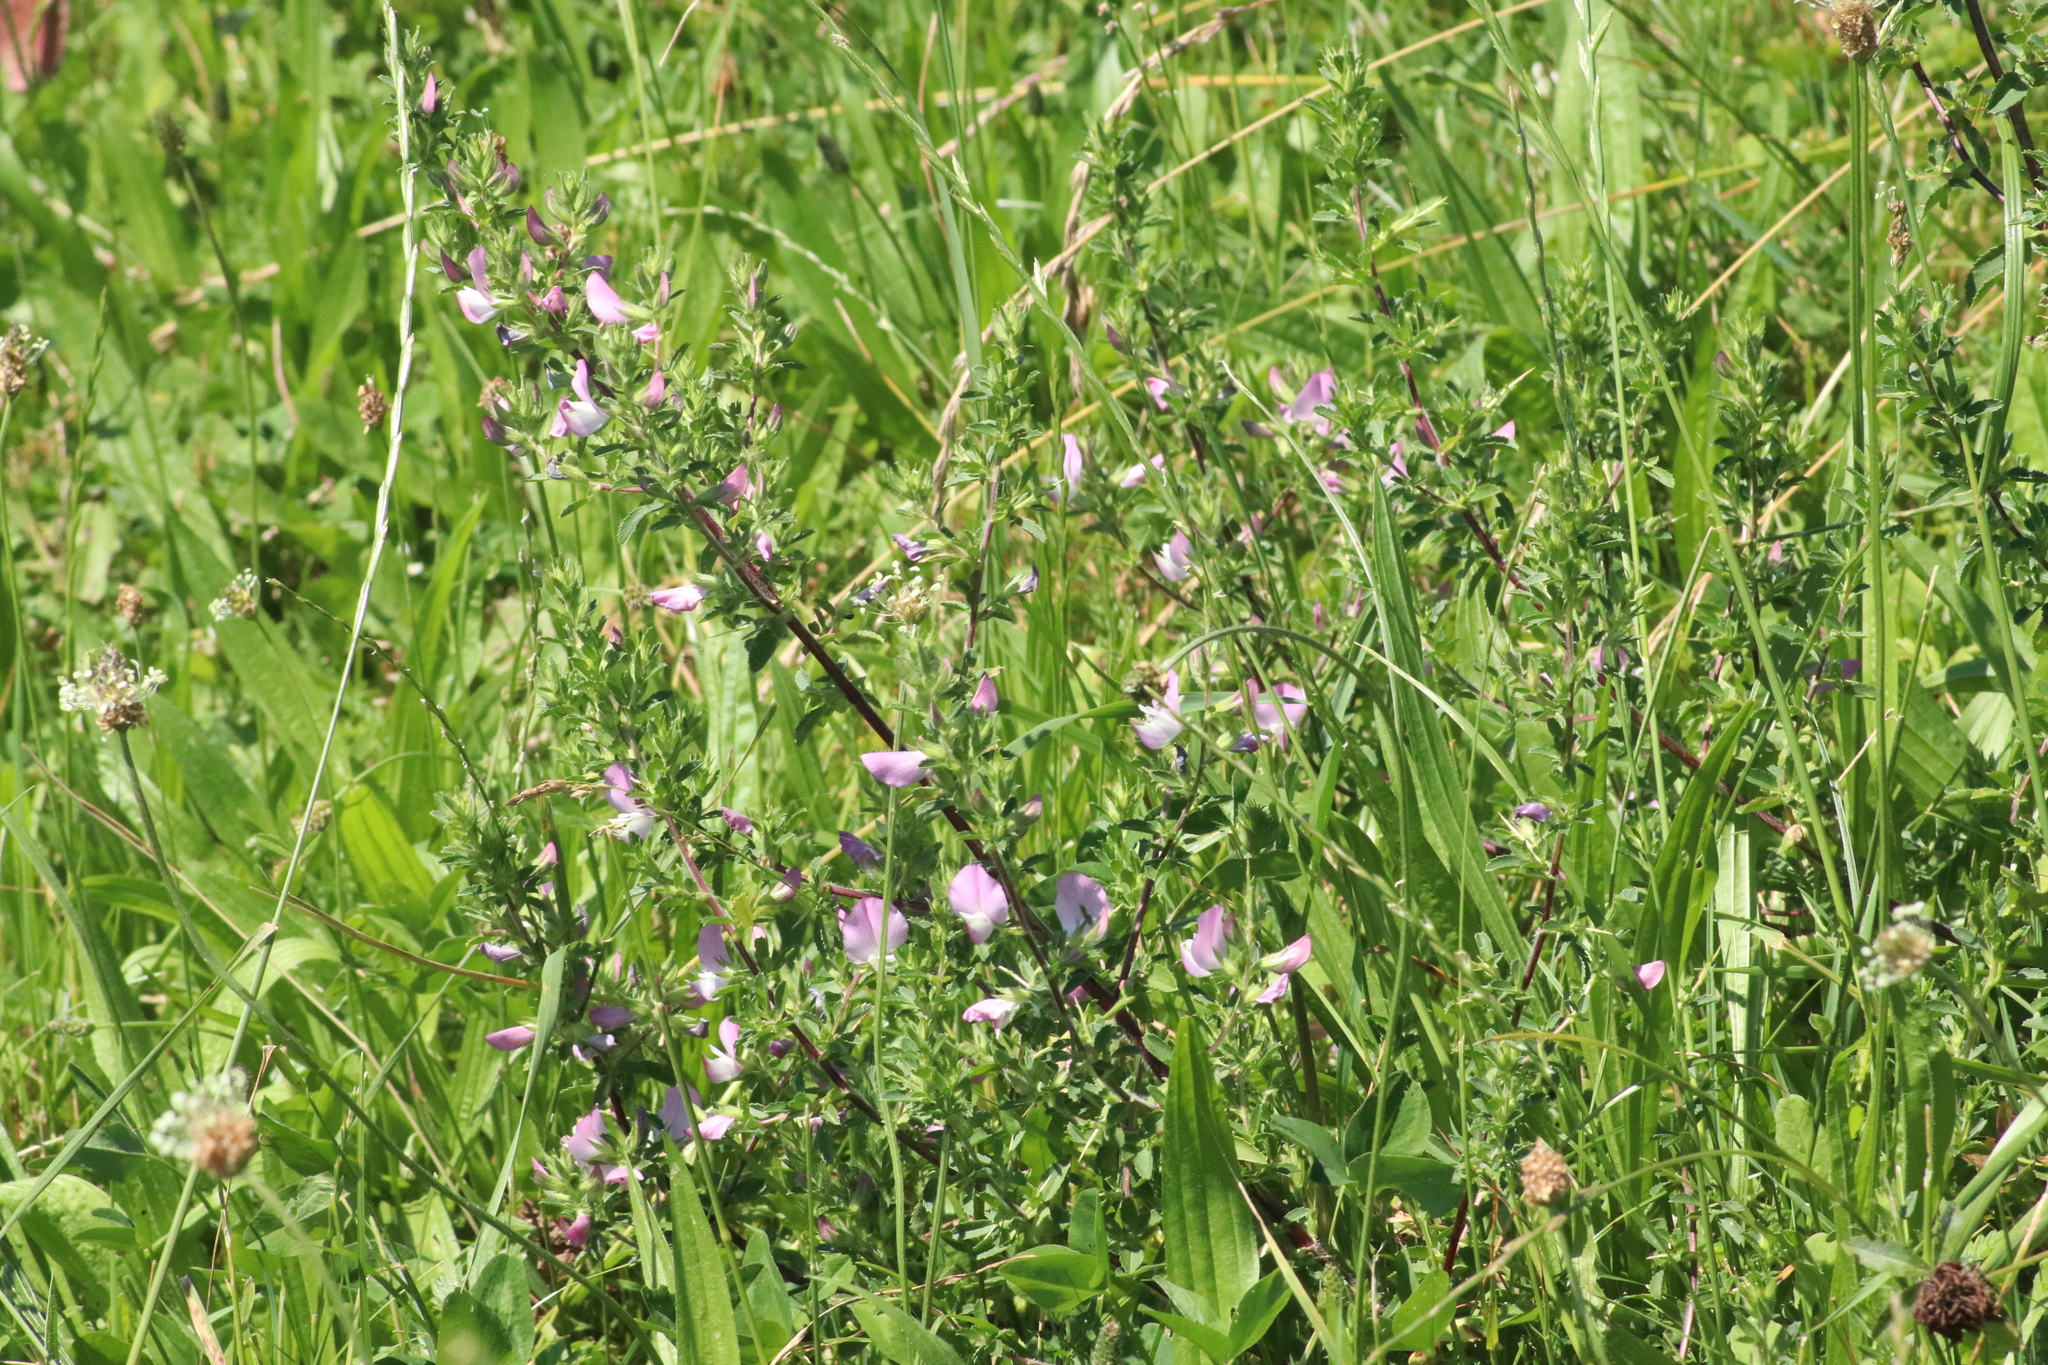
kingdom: Plantae
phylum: Tracheophyta
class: Magnoliopsida
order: Fabales
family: Fabaceae
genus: Ononis
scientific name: Ononis spinosa
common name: Spiny restharrow
